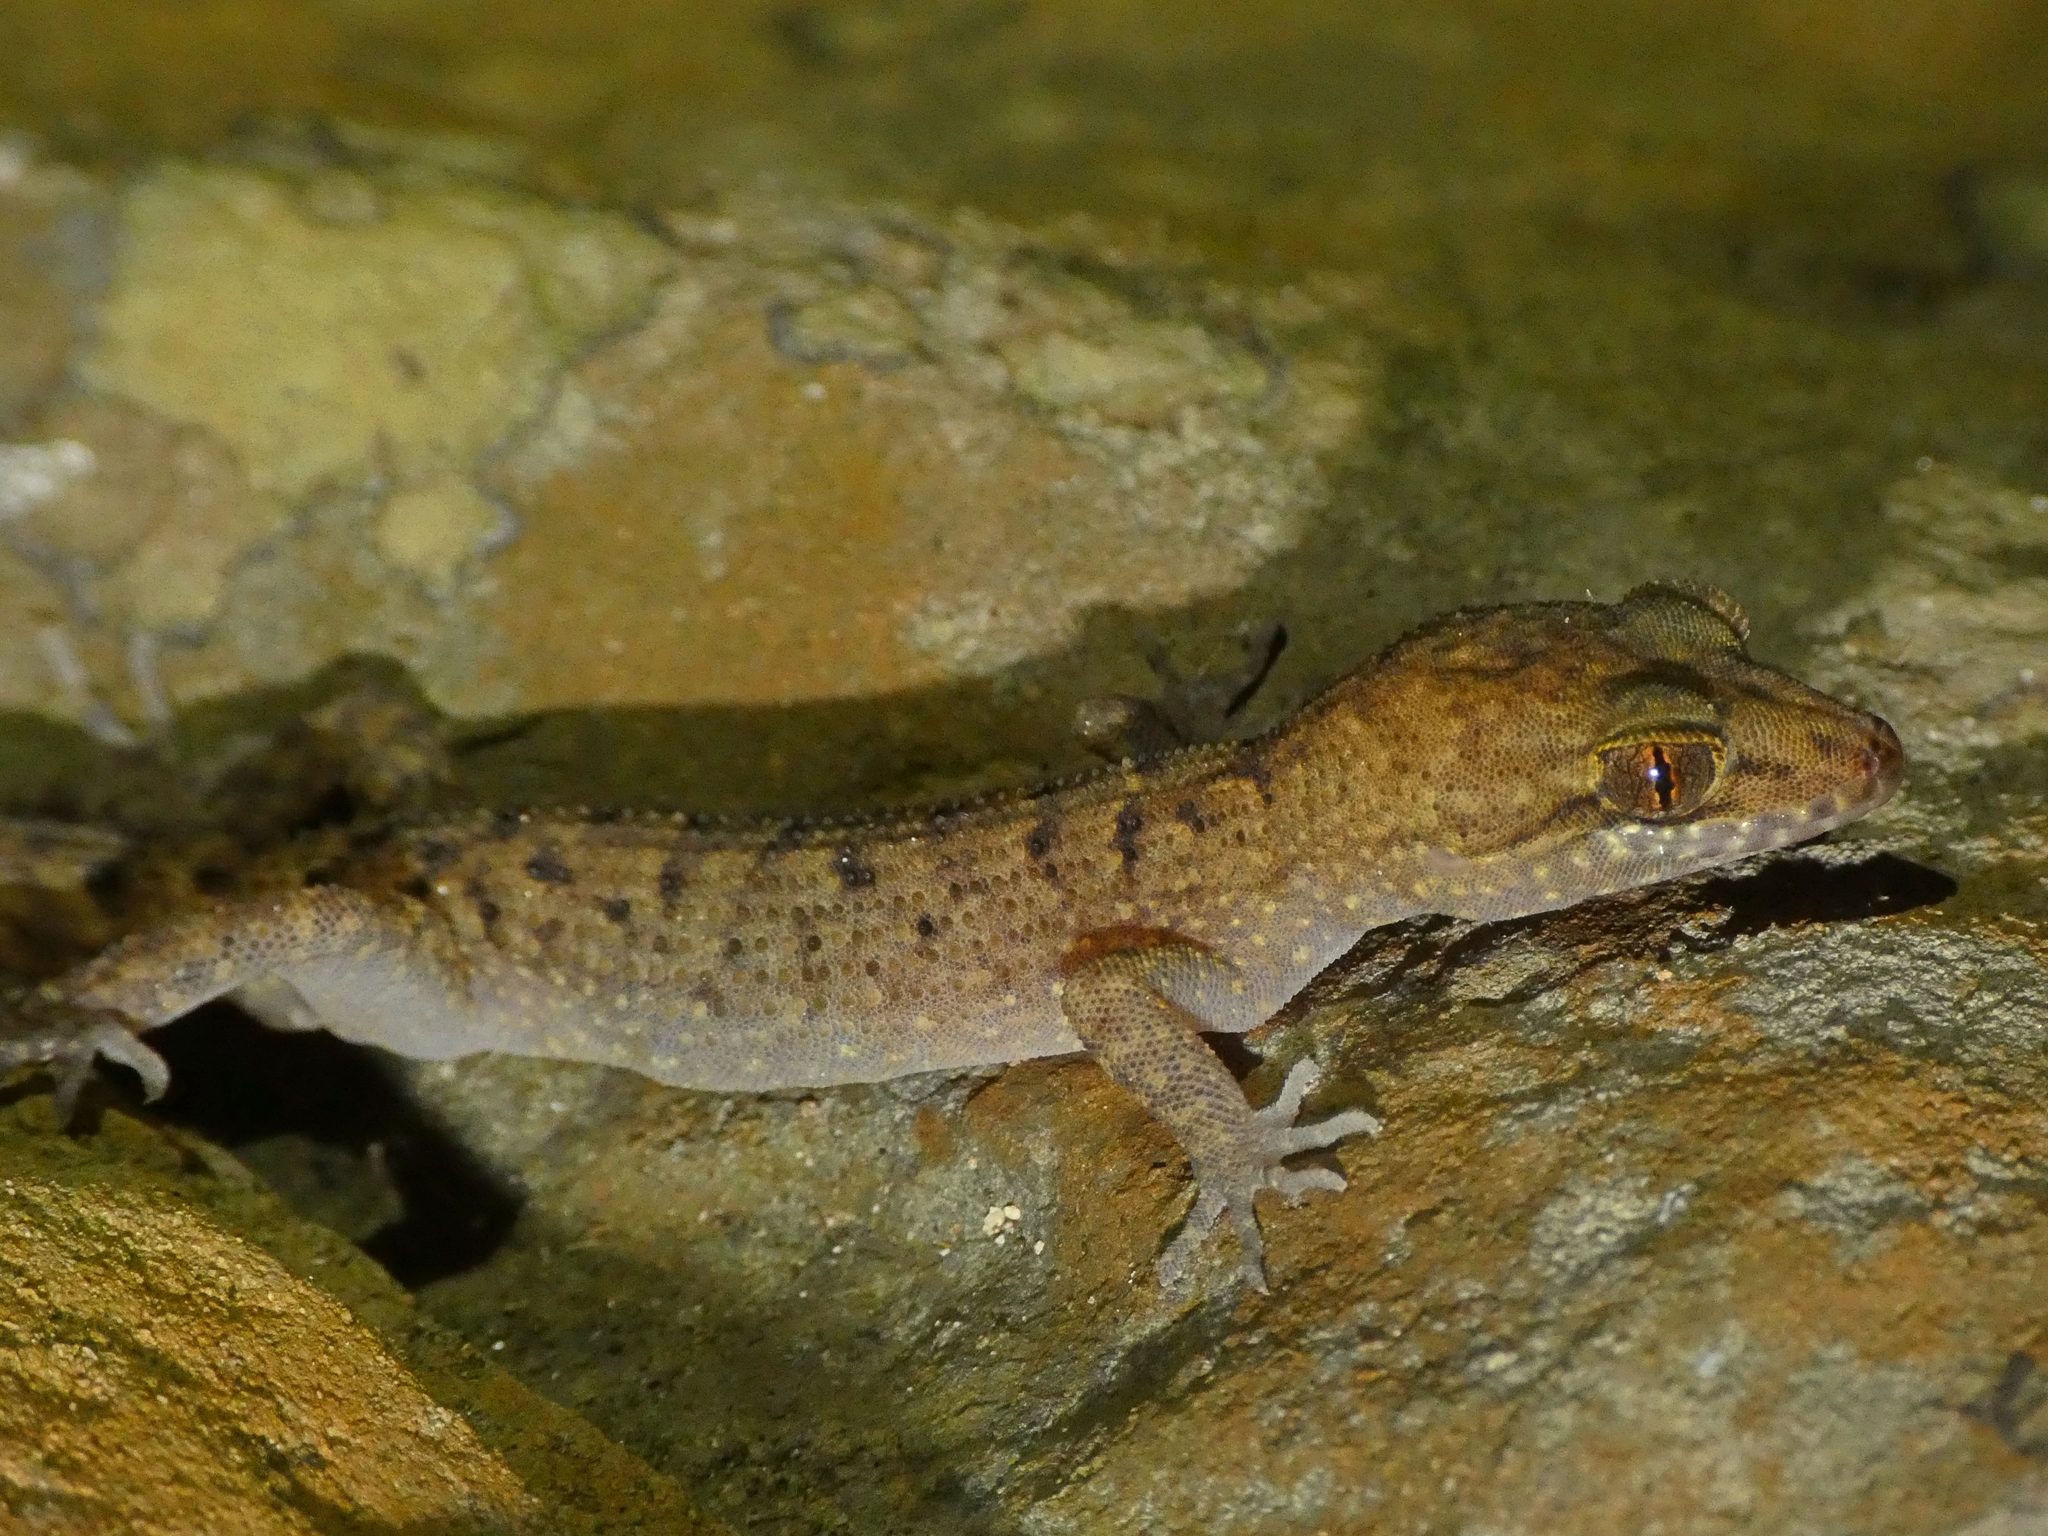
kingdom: Animalia
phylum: Chordata
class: Squamata
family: Gekkonidae
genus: Nactus
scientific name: Nactus cheverti
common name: Chevert's gecko
